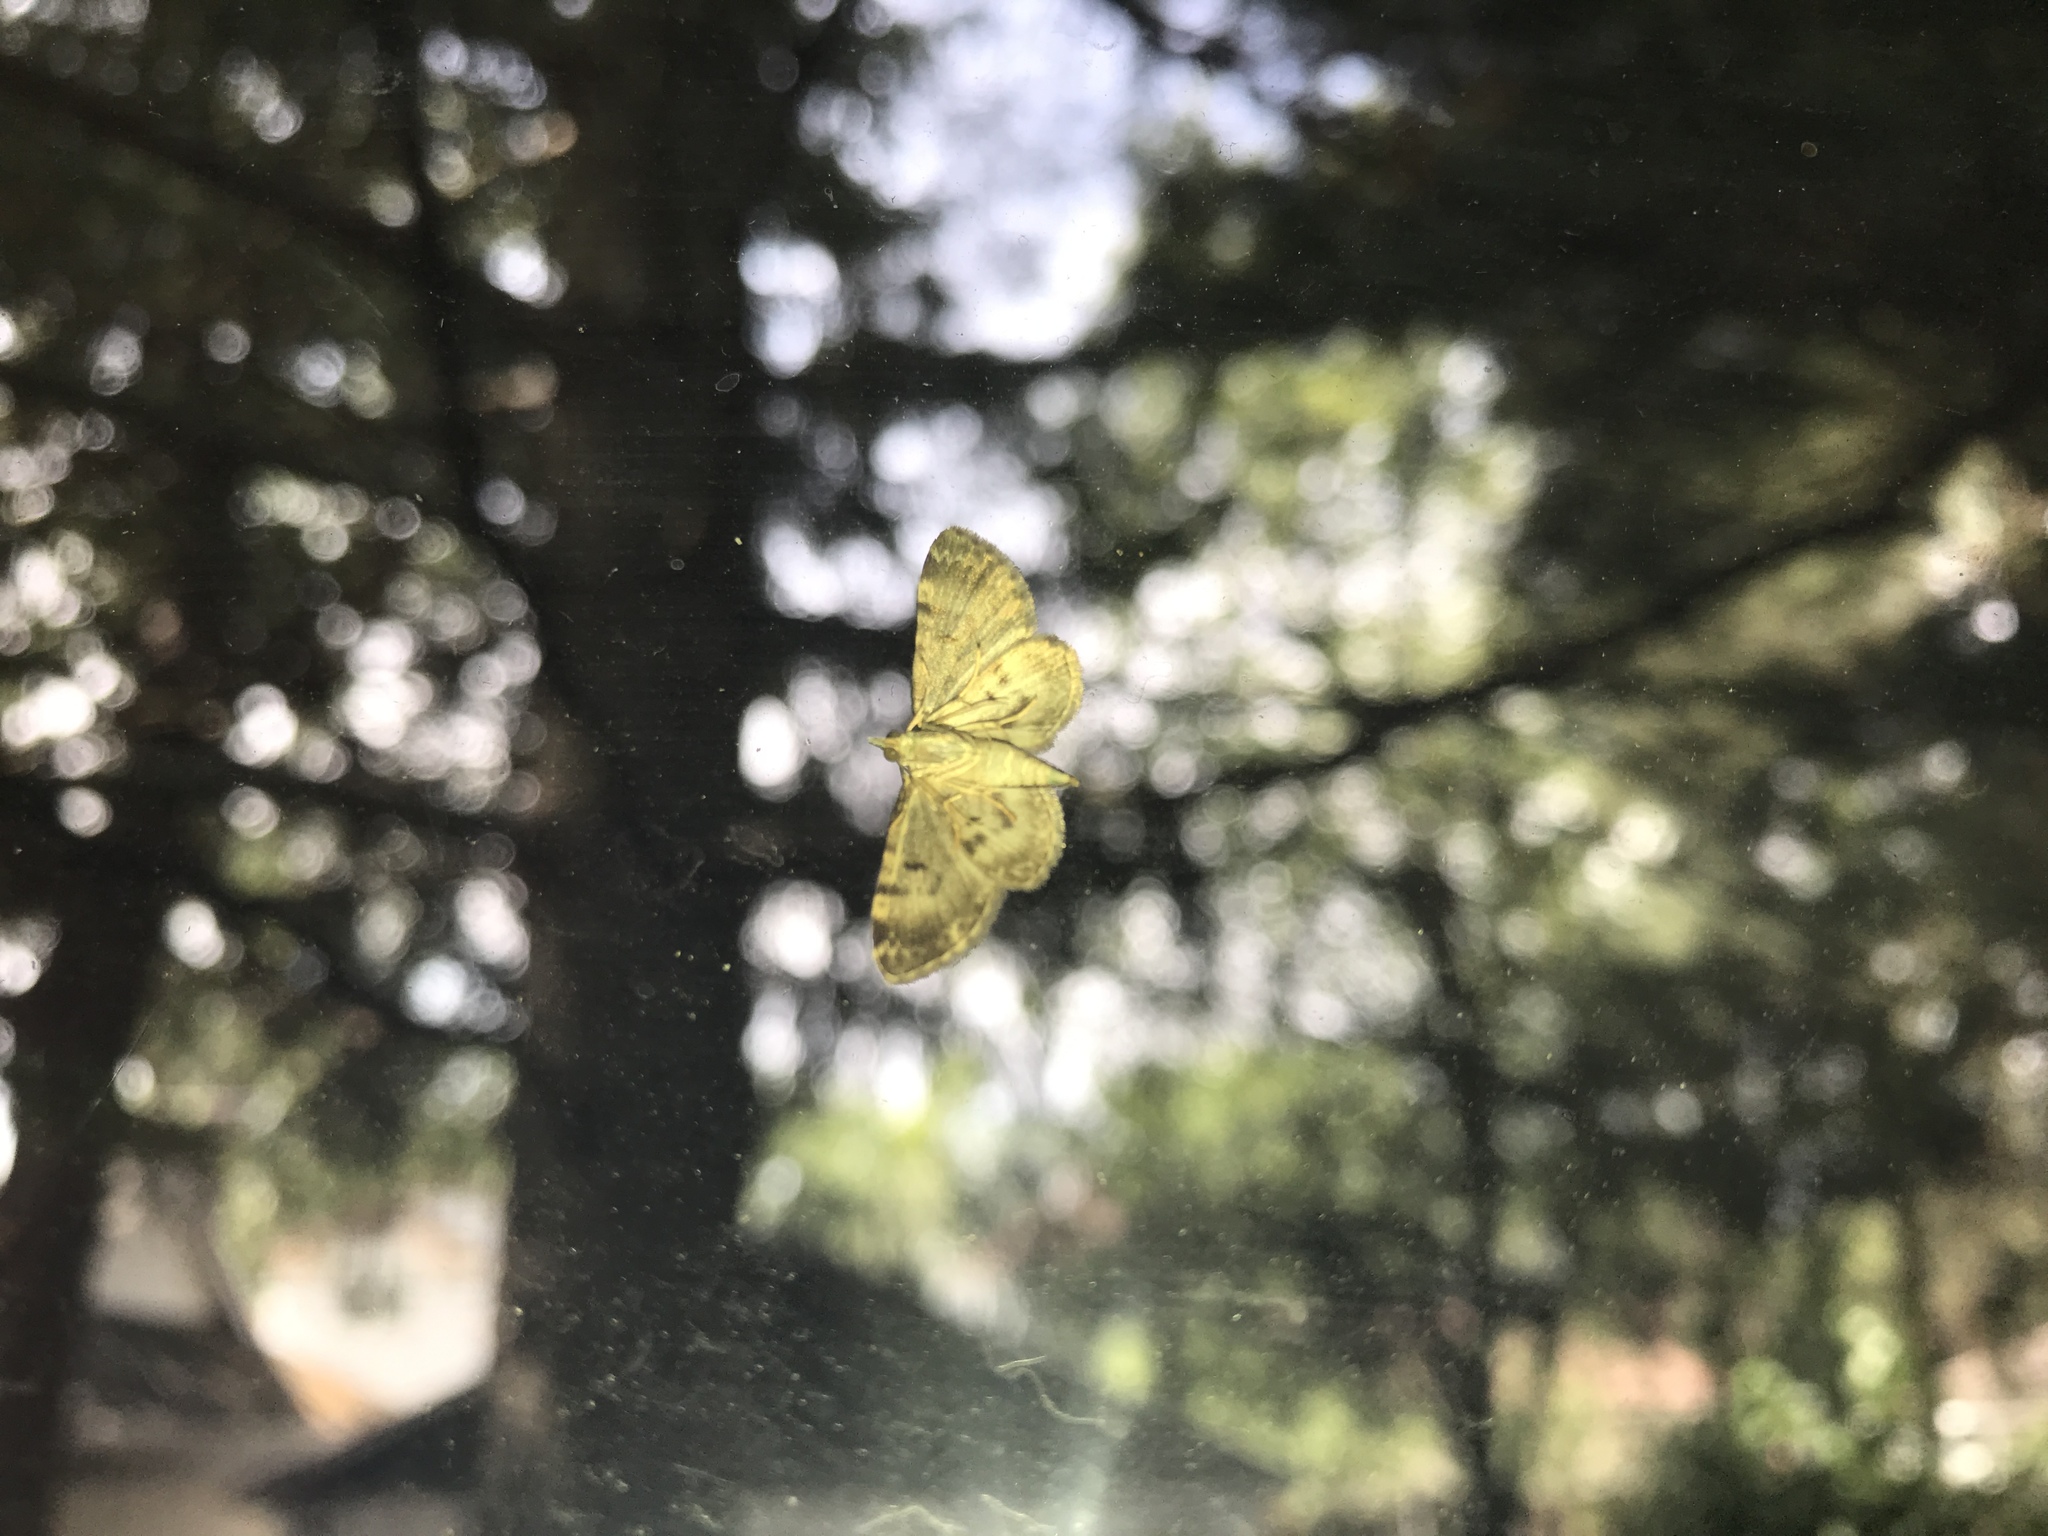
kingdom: Animalia
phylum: Arthropoda
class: Insecta
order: Lepidoptera
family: Geometridae
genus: Pasiphila
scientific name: Pasiphila rectangulata
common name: Green pug
